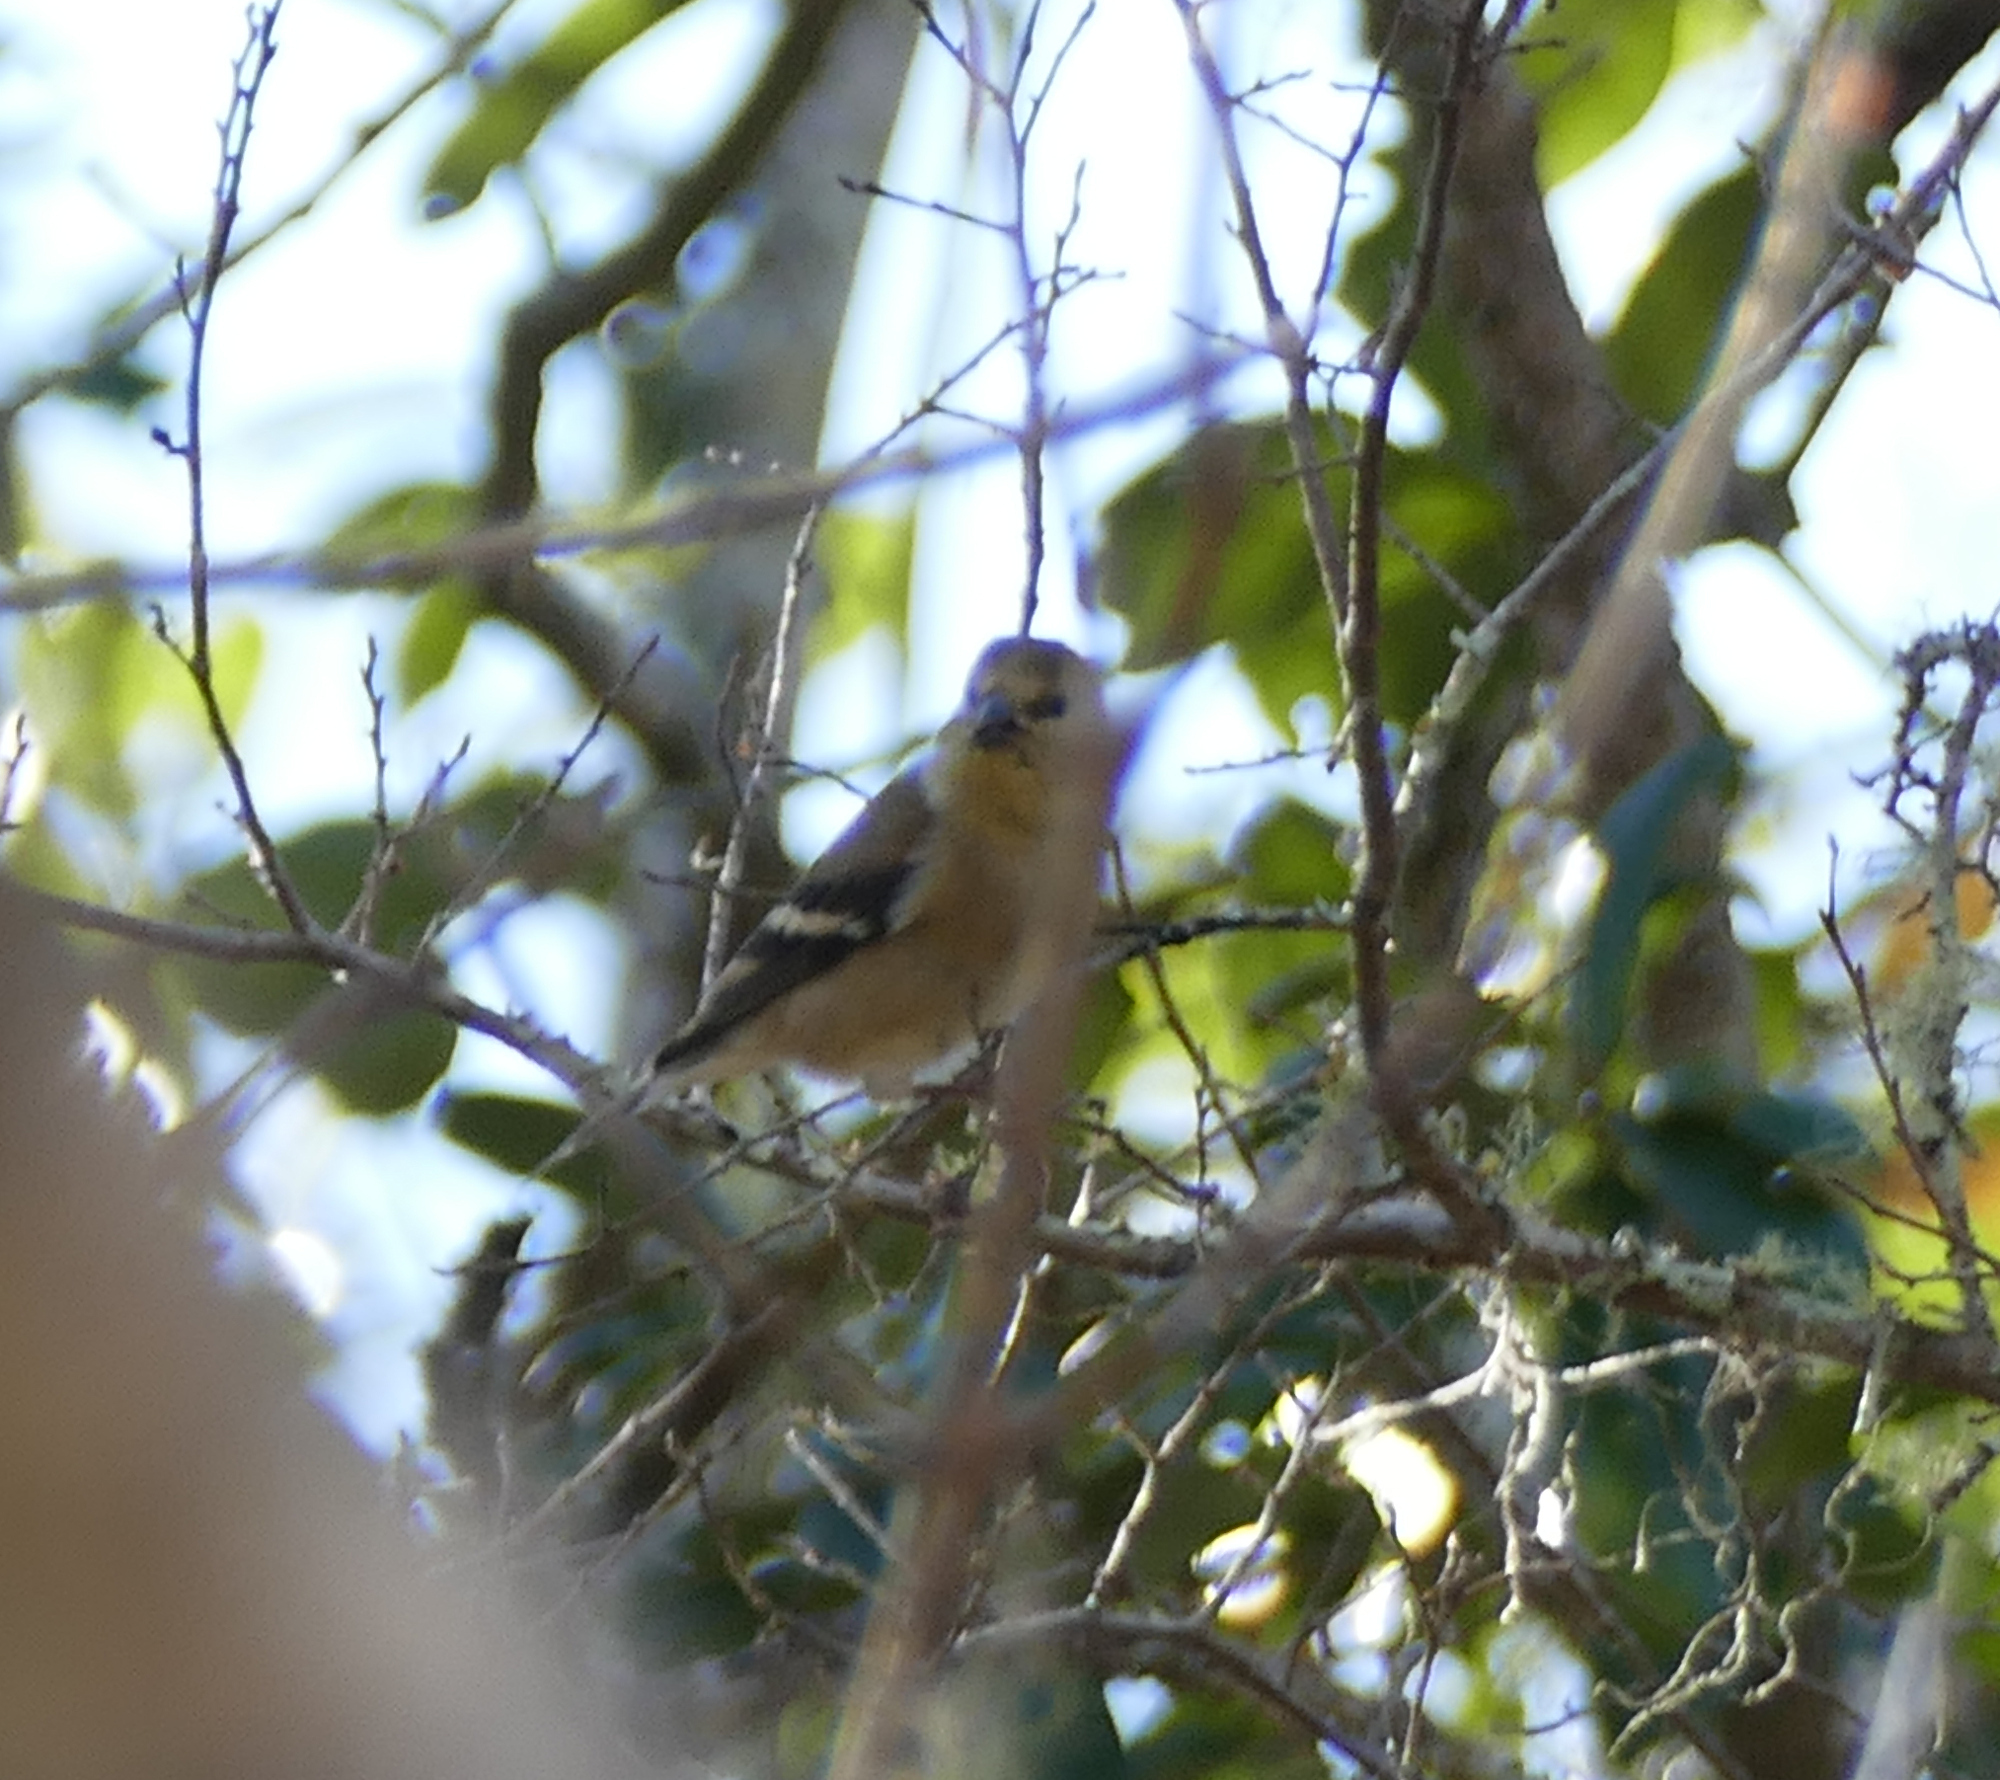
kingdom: Animalia
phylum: Chordata
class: Aves
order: Passeriformes
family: Fringillidae
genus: Spinus
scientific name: Spinus tristis
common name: American goldfinch
